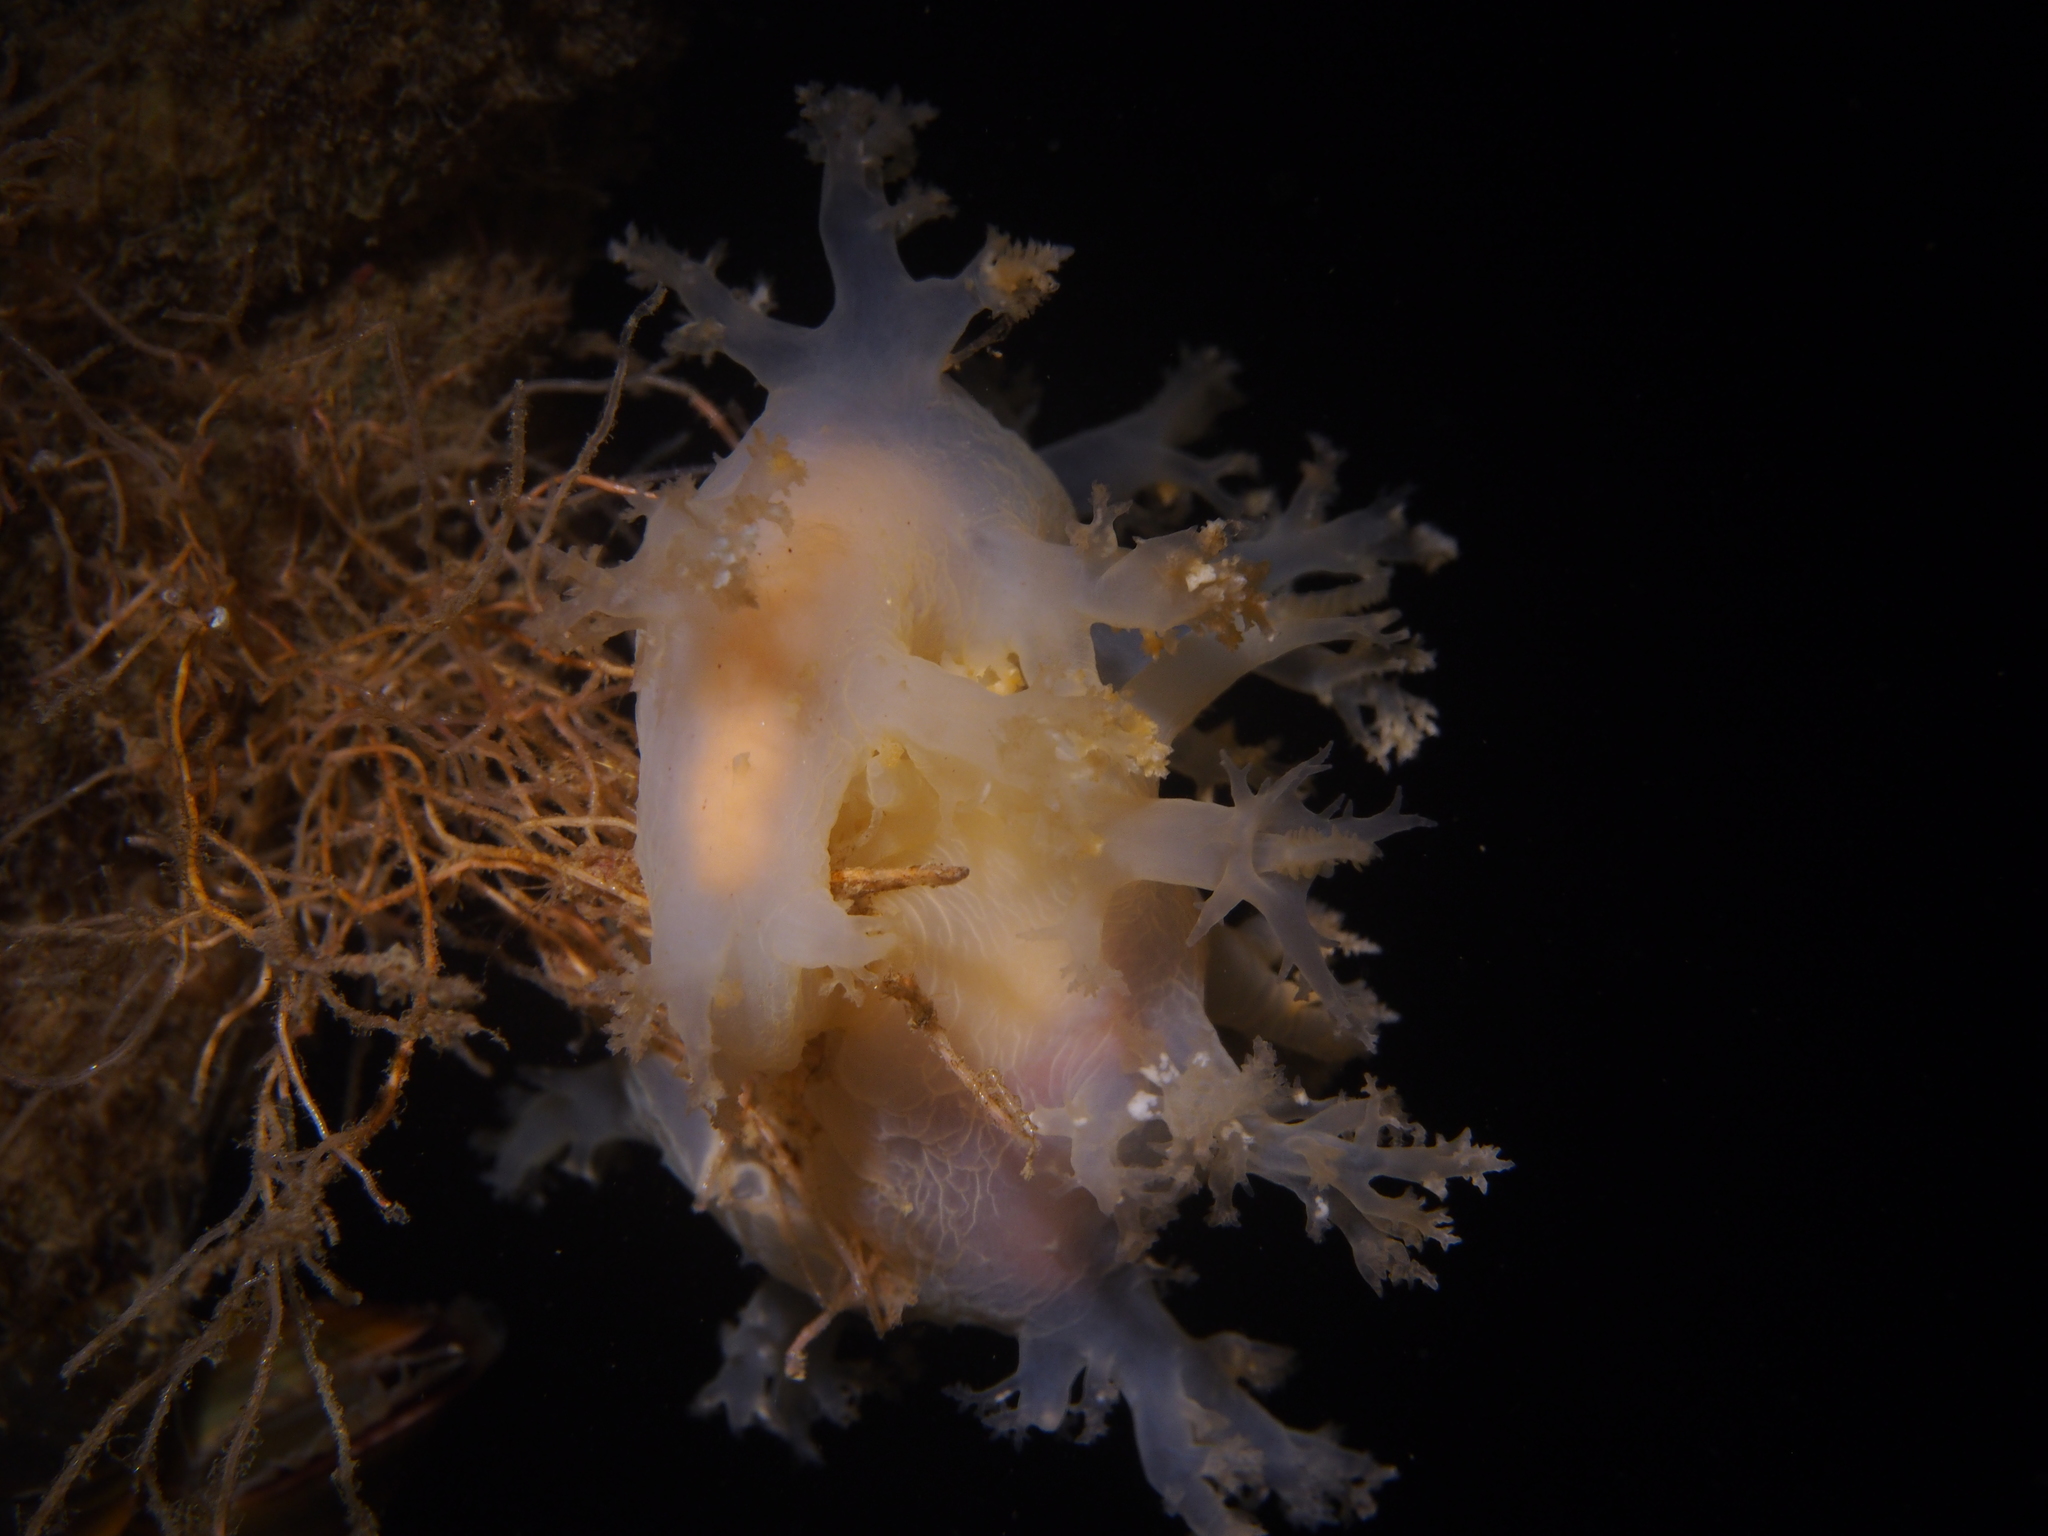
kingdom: Animalia
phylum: Mollusca
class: Gastropoda
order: Nudibranchia
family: Dendronotidae
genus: Dendronotus
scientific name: Dendronotus lacteus
